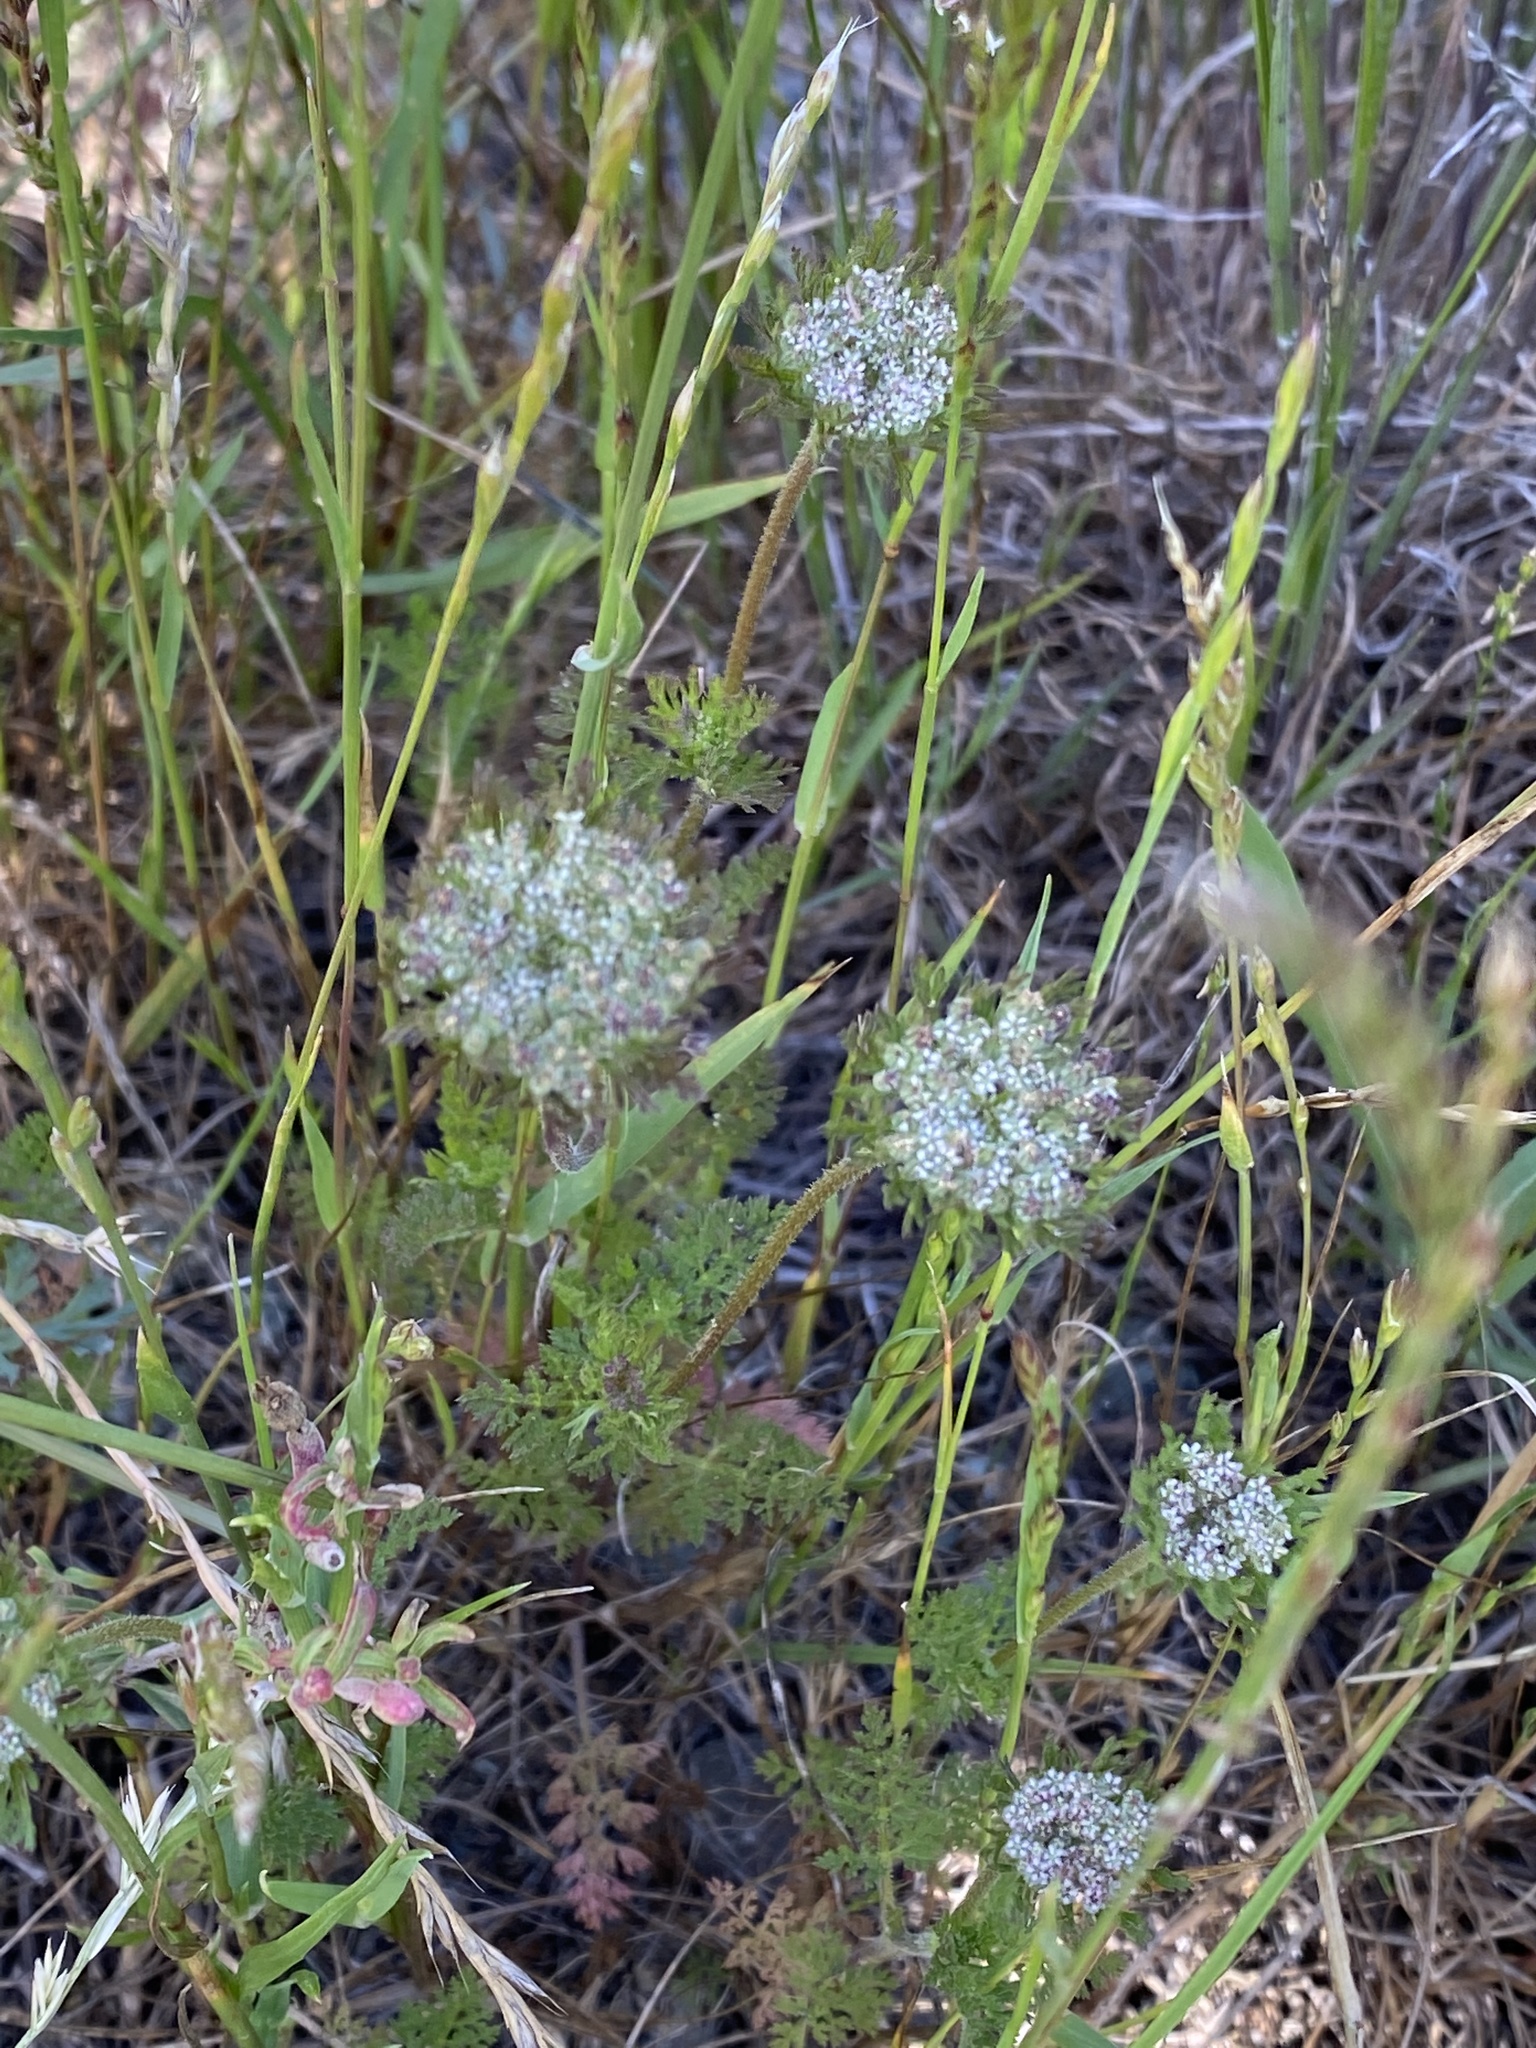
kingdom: Plantae
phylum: Tracheophyta
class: Magnoliopsida
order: Apiales
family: Apiaceae
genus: Daucus
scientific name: Daucus pusillus
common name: Southwest wild carrot
